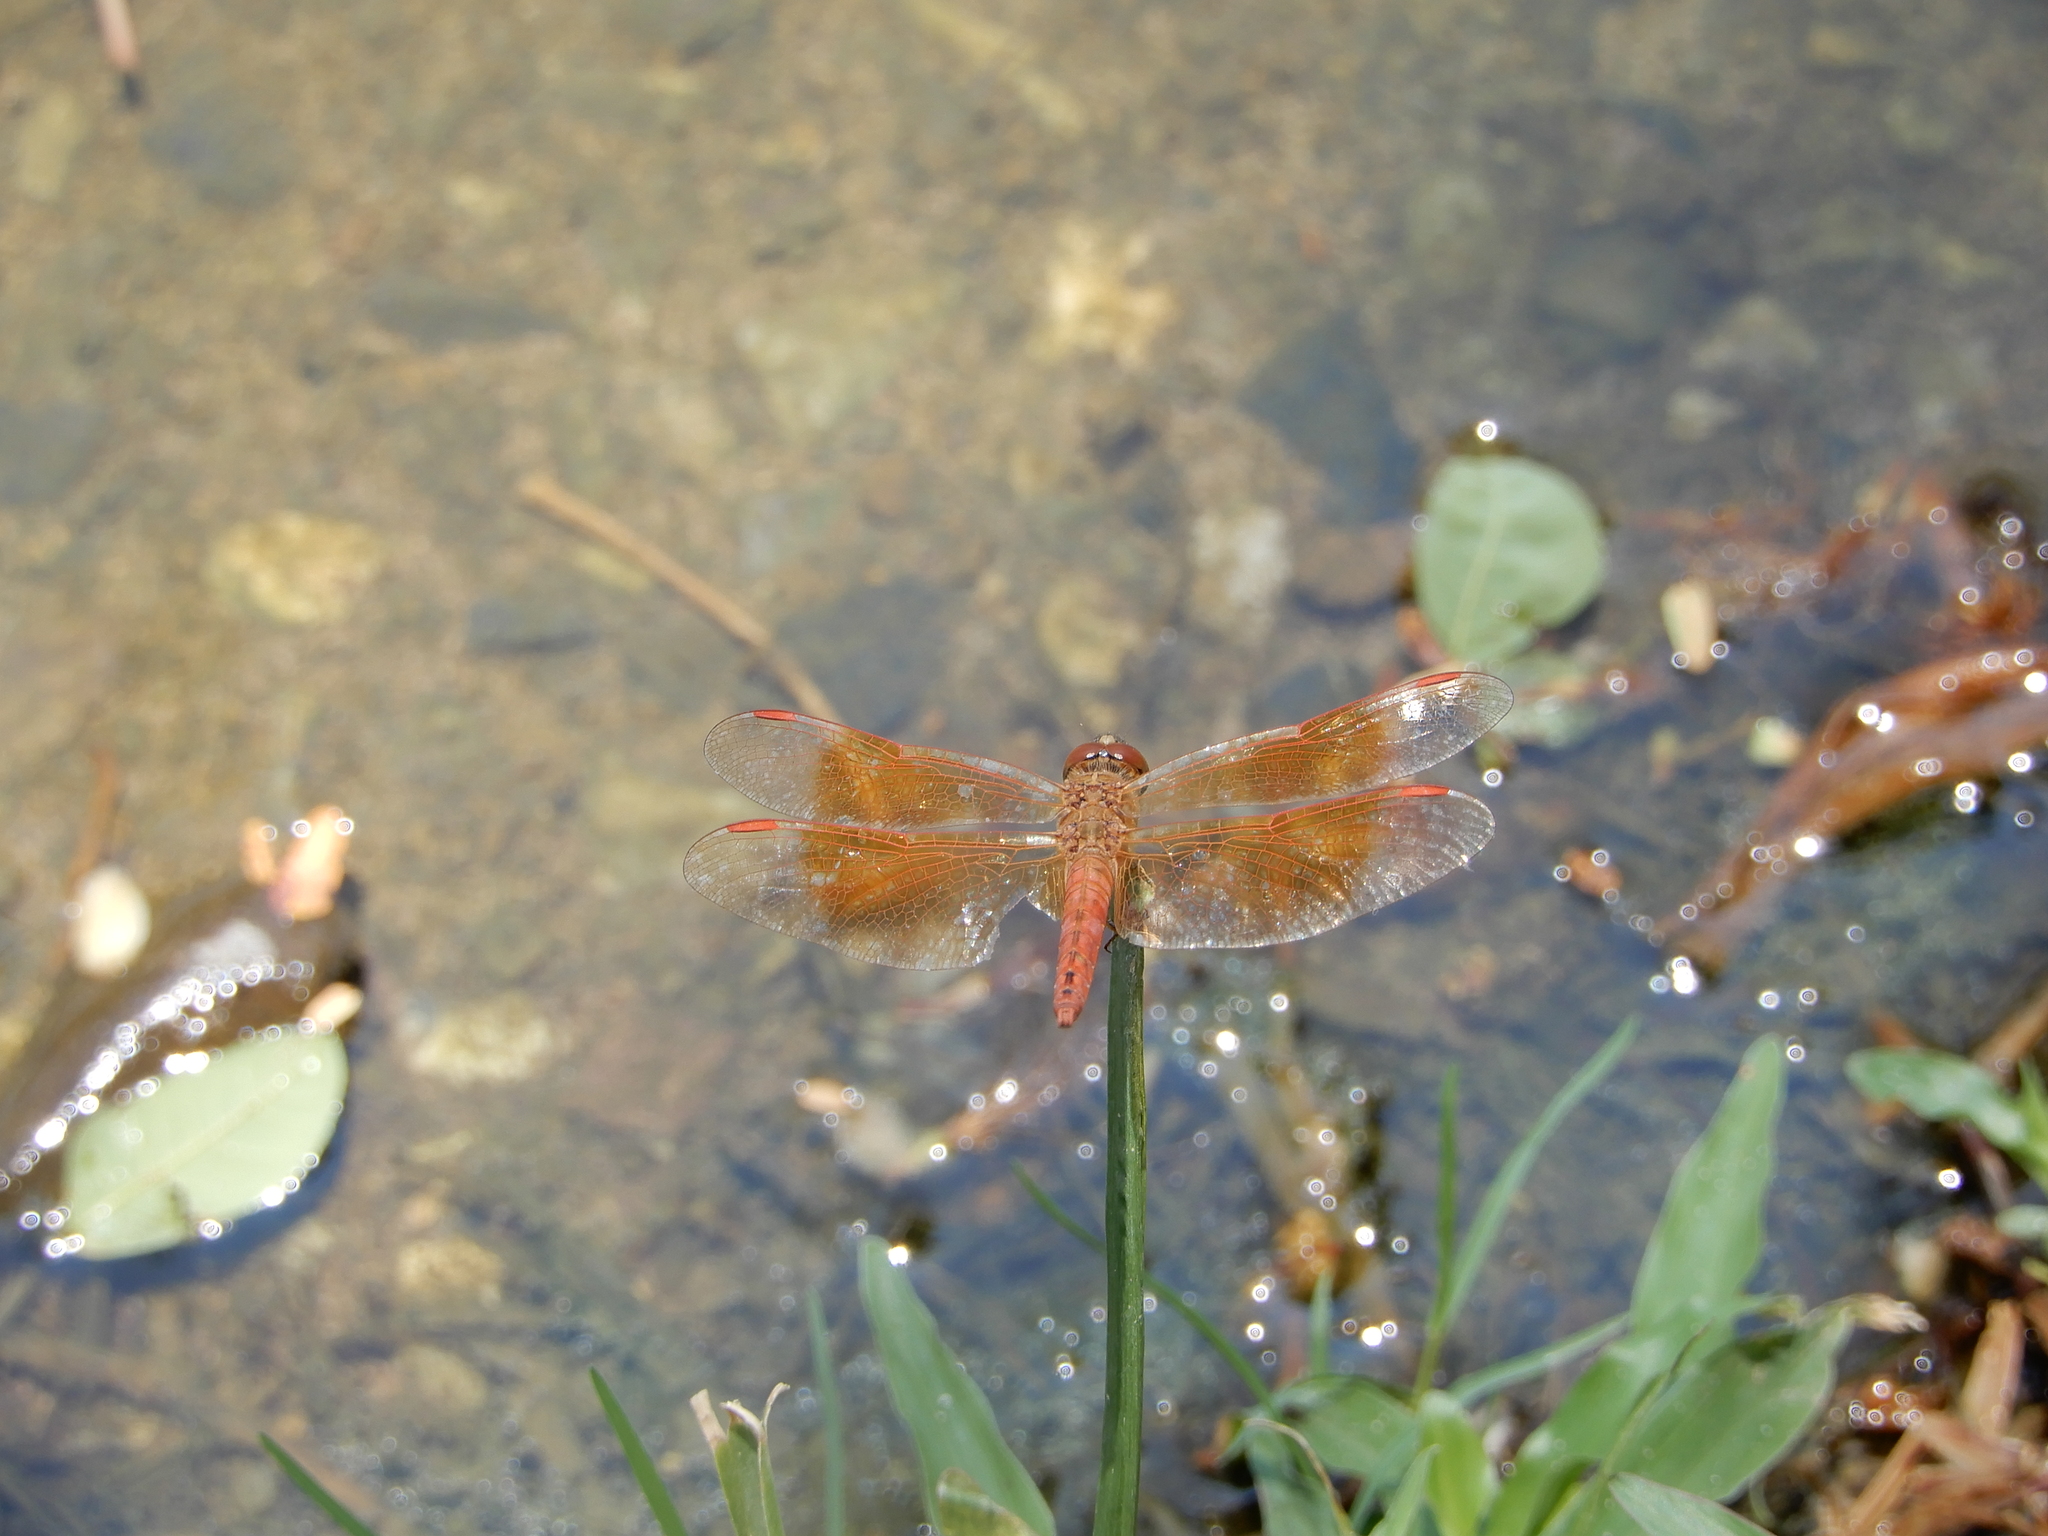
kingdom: Animalia
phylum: Arthropoda
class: Insecta
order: Odonata
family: Libellulidae
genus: Brachythemis
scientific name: Brachythemis contaminata
